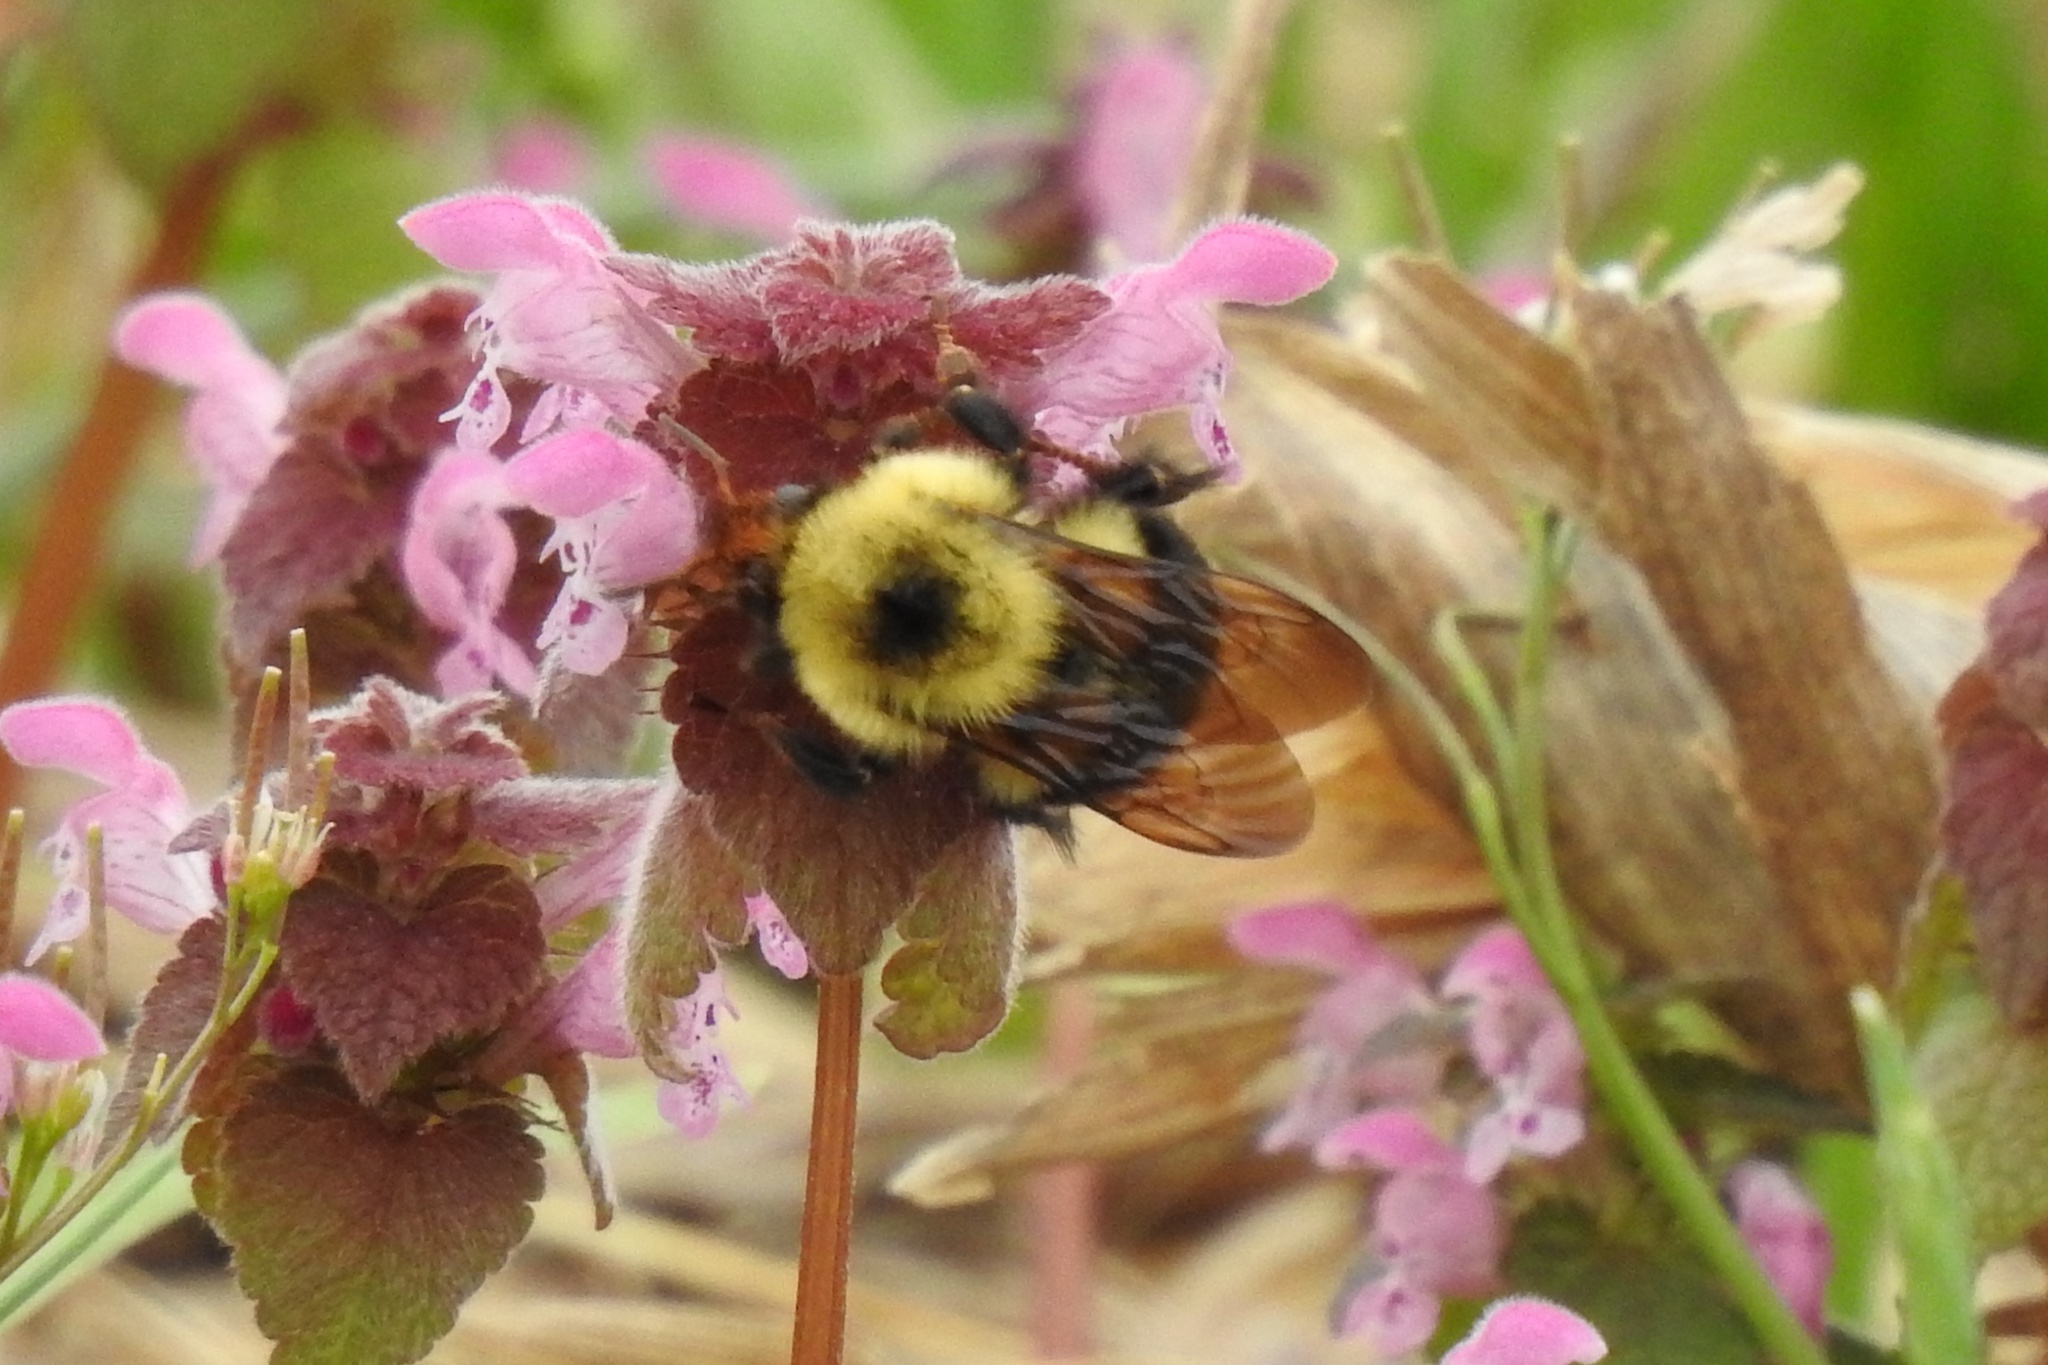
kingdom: Animalia
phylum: Arthropoda
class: Insecta
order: Hymenoptera
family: Apidae
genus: Bombus
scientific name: Bombus bimaculatus
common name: Two-spotted bumble bee
